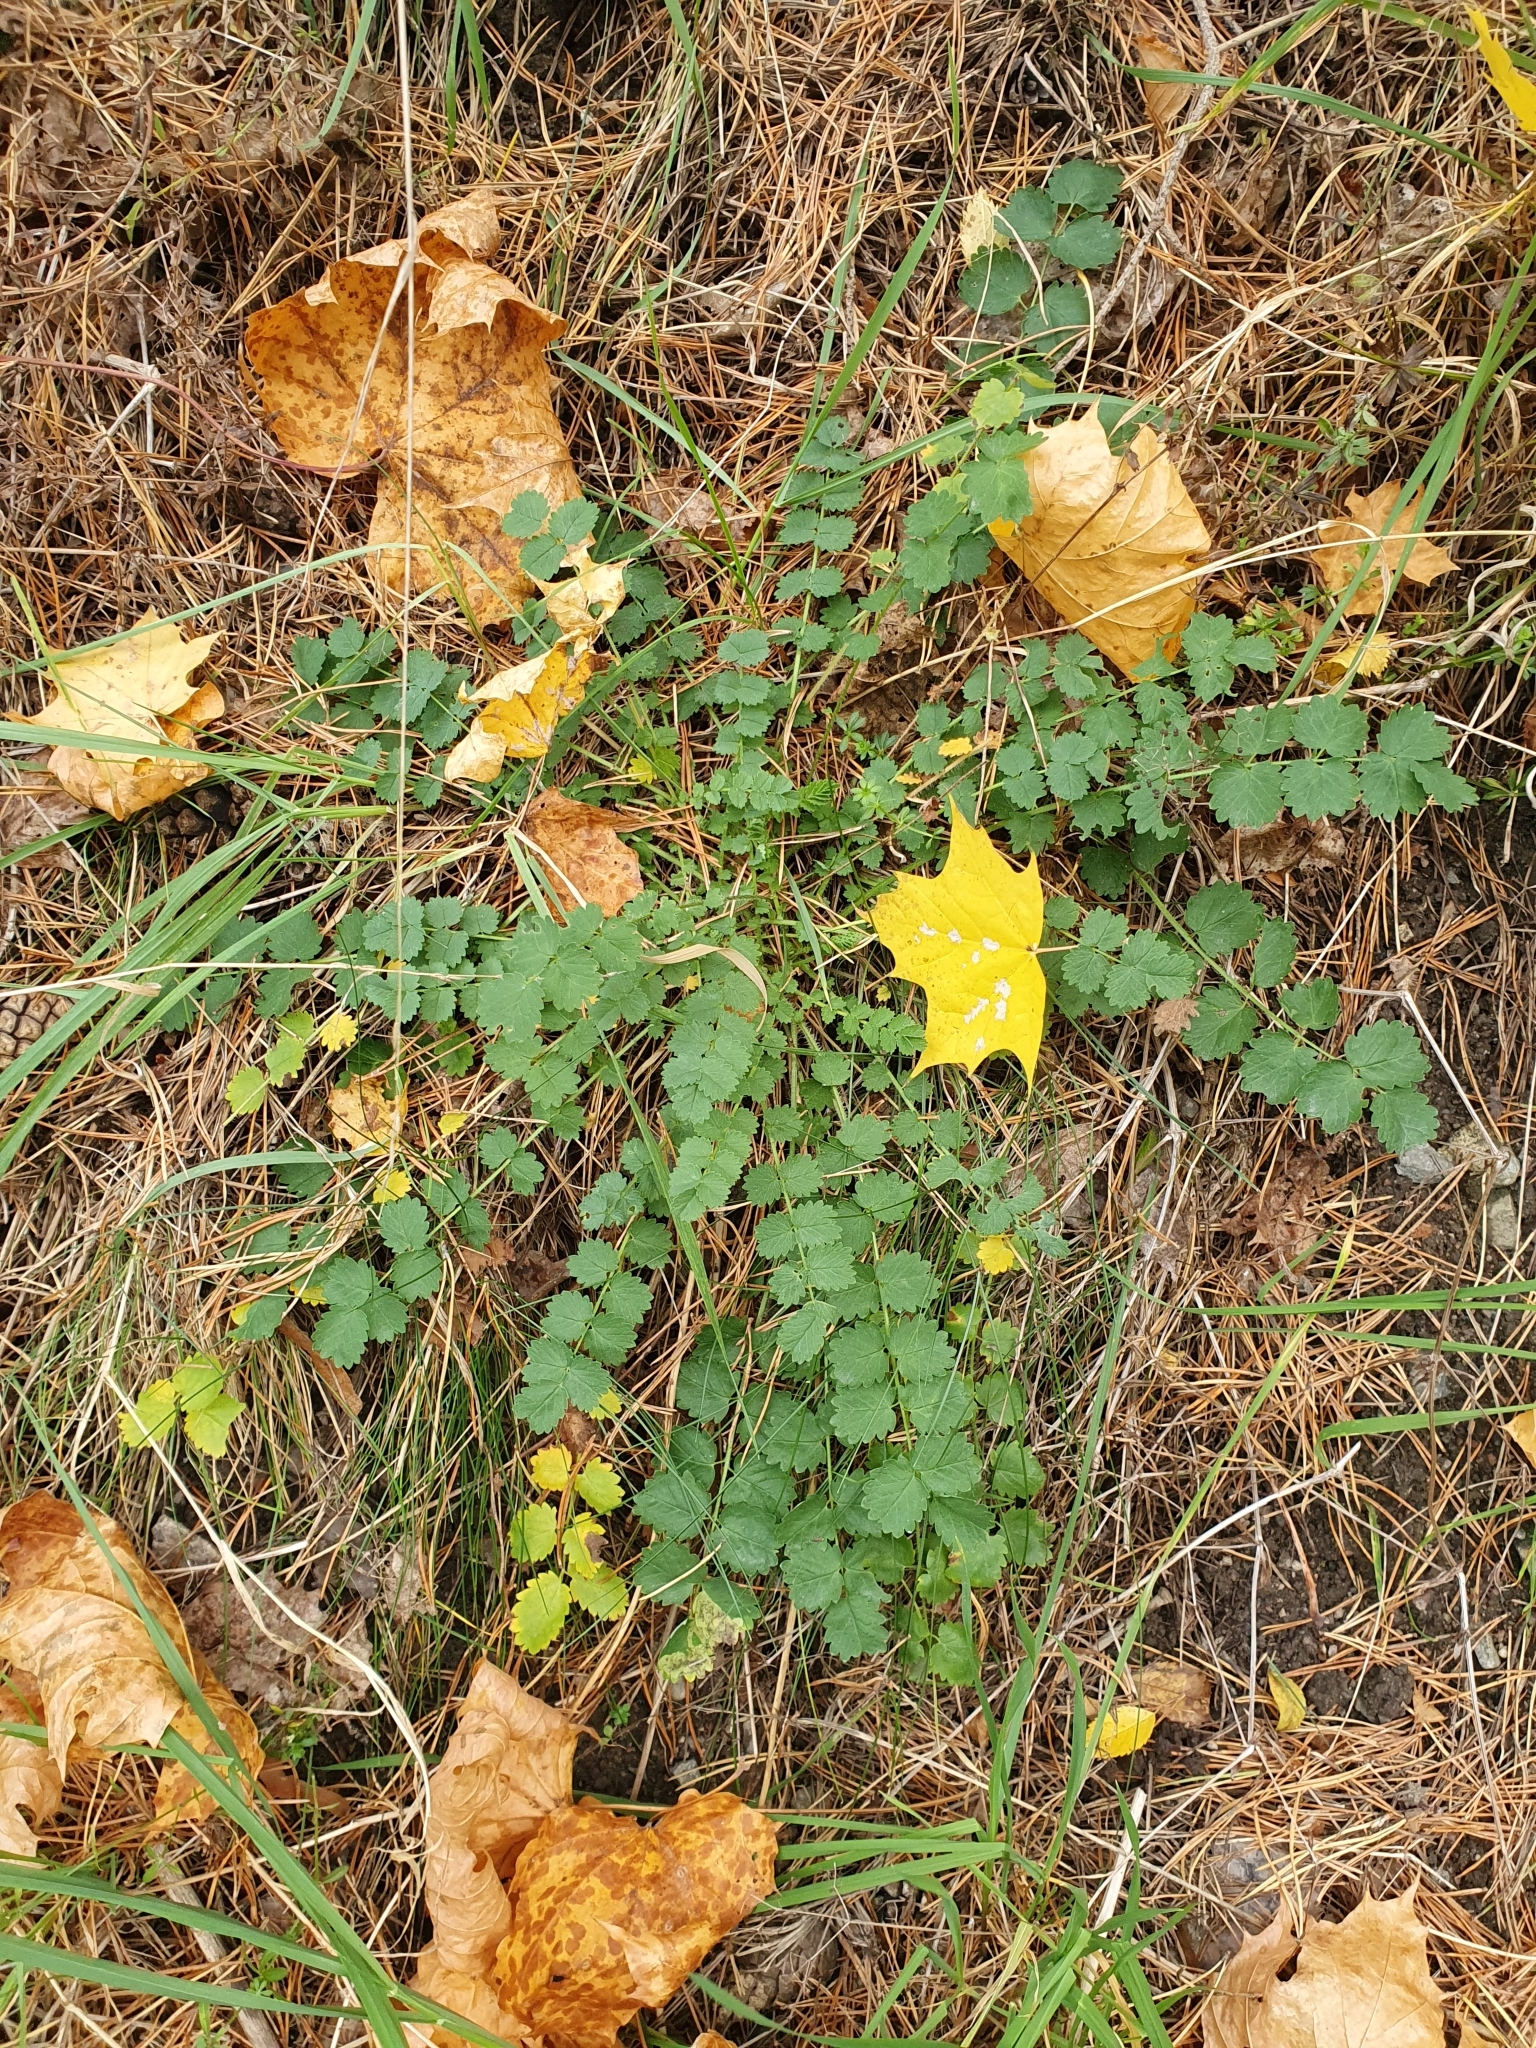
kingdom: Plantae
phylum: Tracheophyta
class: Magnoliopsida
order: Rosales
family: Rosaceae
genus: Poterium
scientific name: Poterium sanguisorba
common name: Salad burnet
